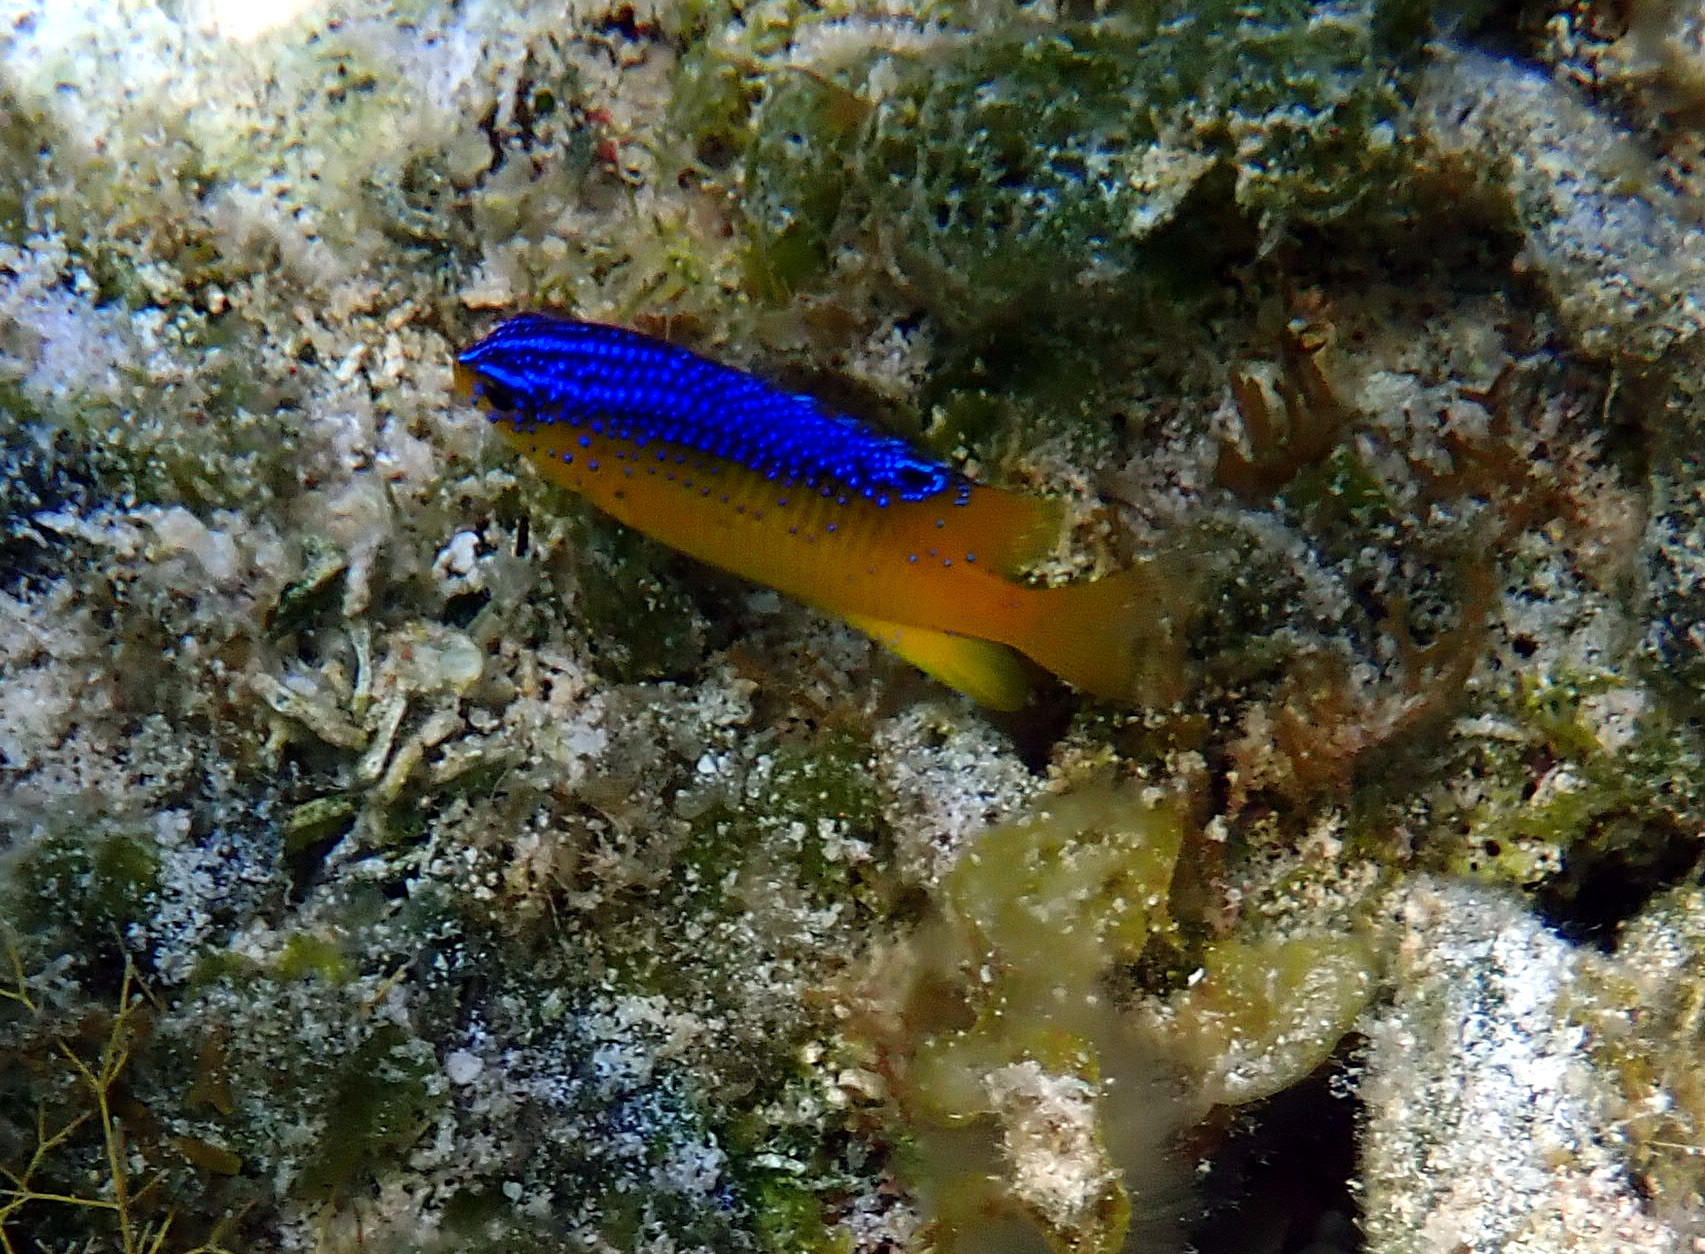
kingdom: Animalia
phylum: Chordata
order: Perciformes
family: Pomacentridae
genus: Stegastes
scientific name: Stegastes leucostictus
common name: Beaugregory
